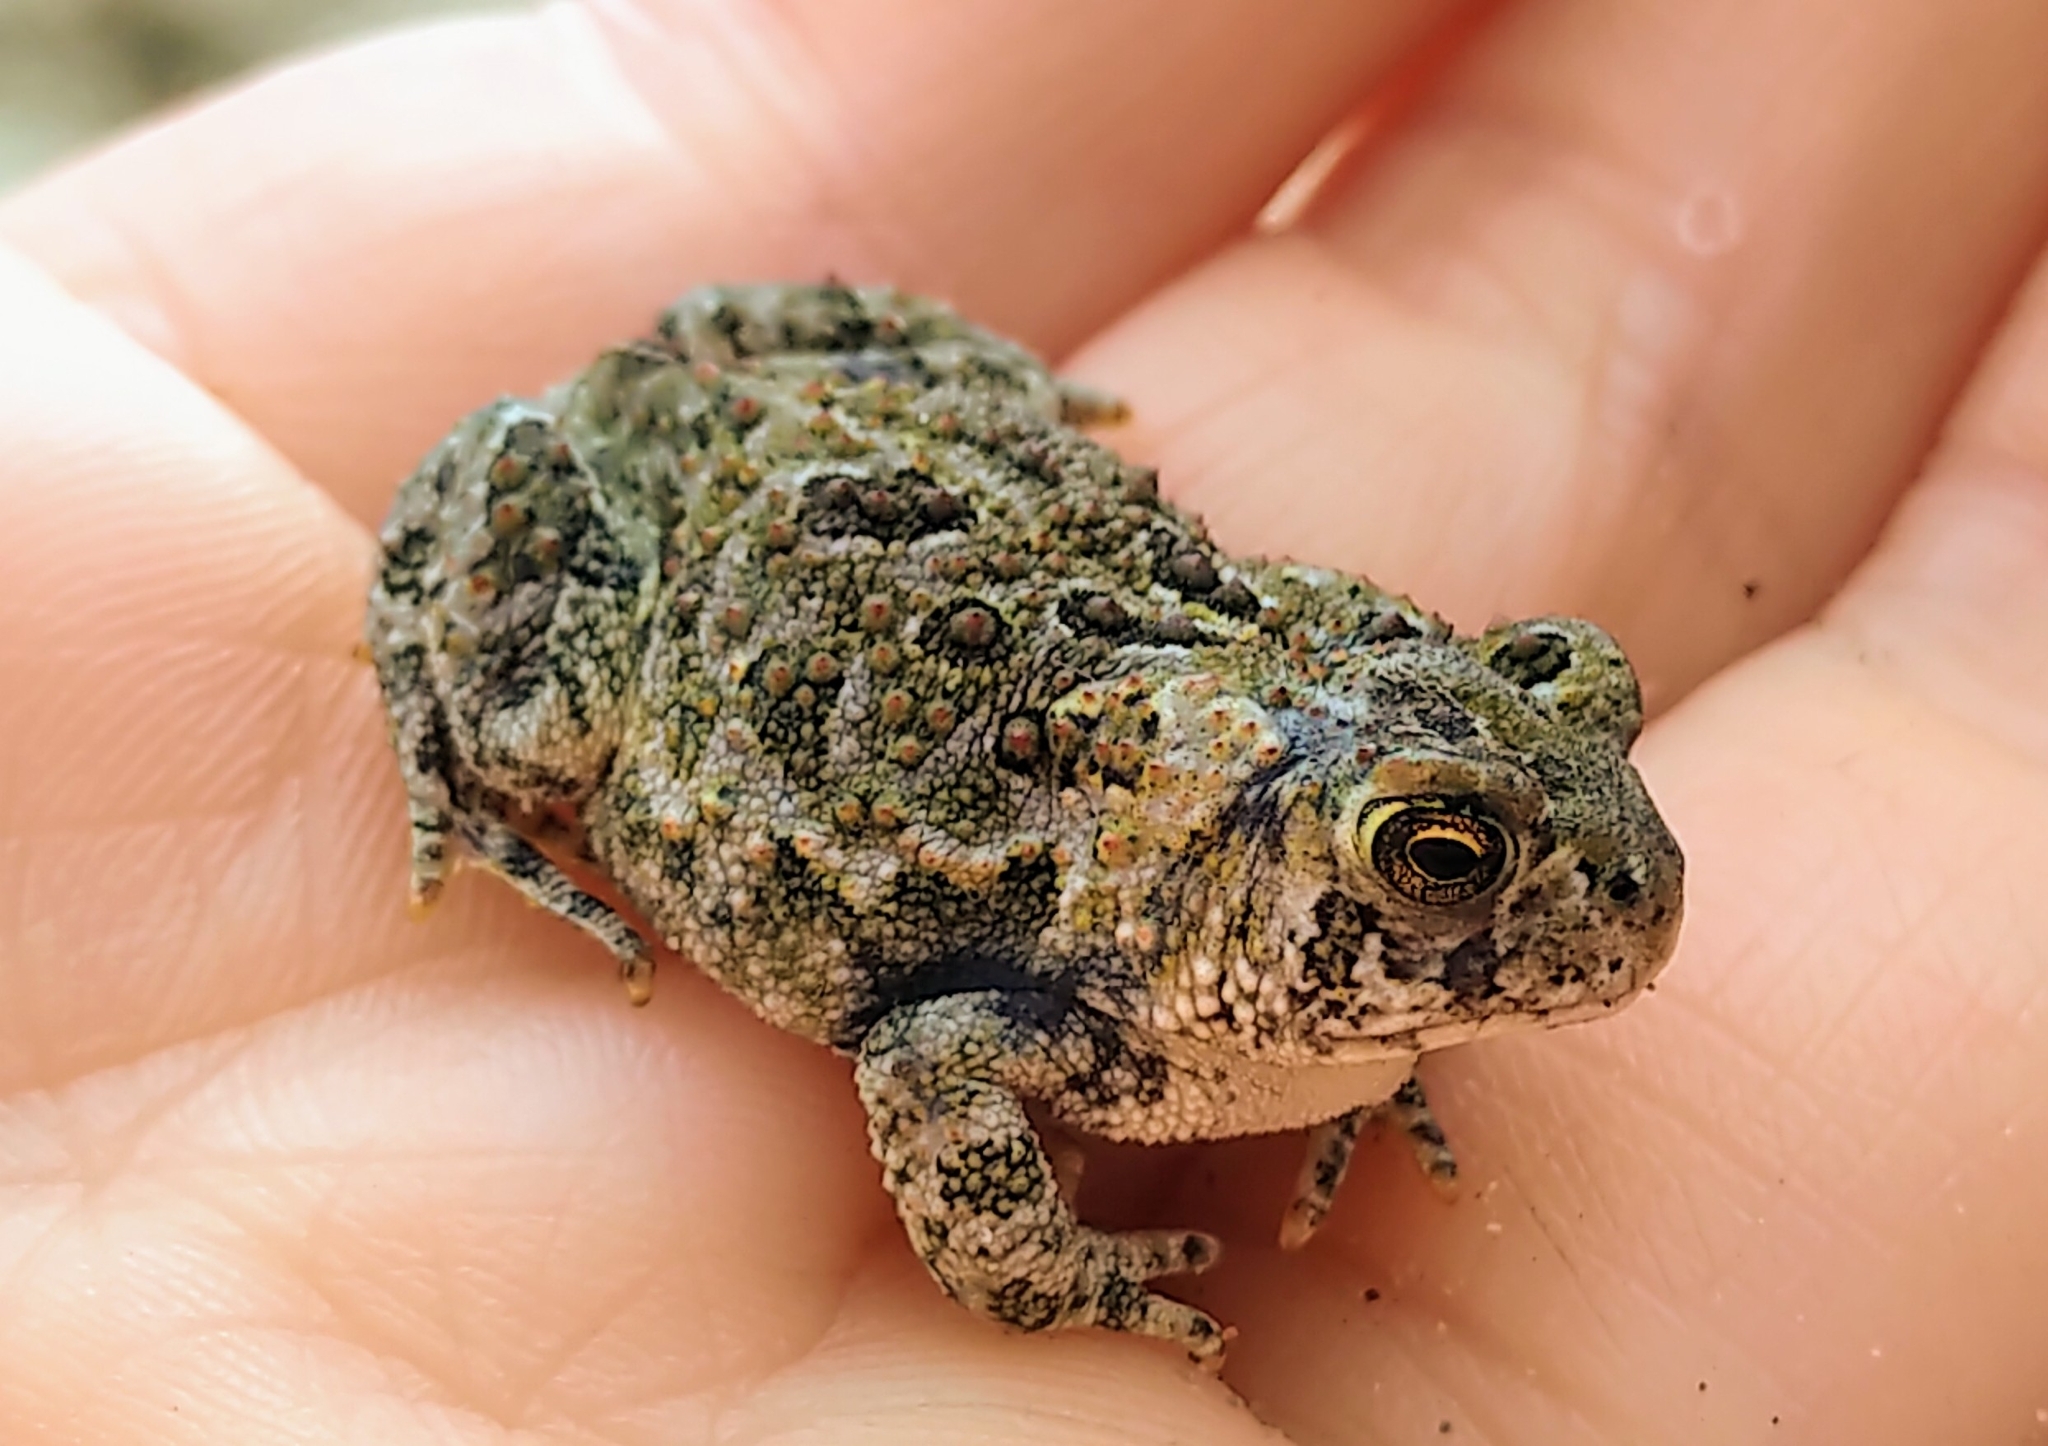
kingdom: Animalia
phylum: Chordata
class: Amphibia
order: Anura
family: Bufonidae
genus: Anaxyrus
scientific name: Anaxyrus hemiophrys
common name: Canadian toad
